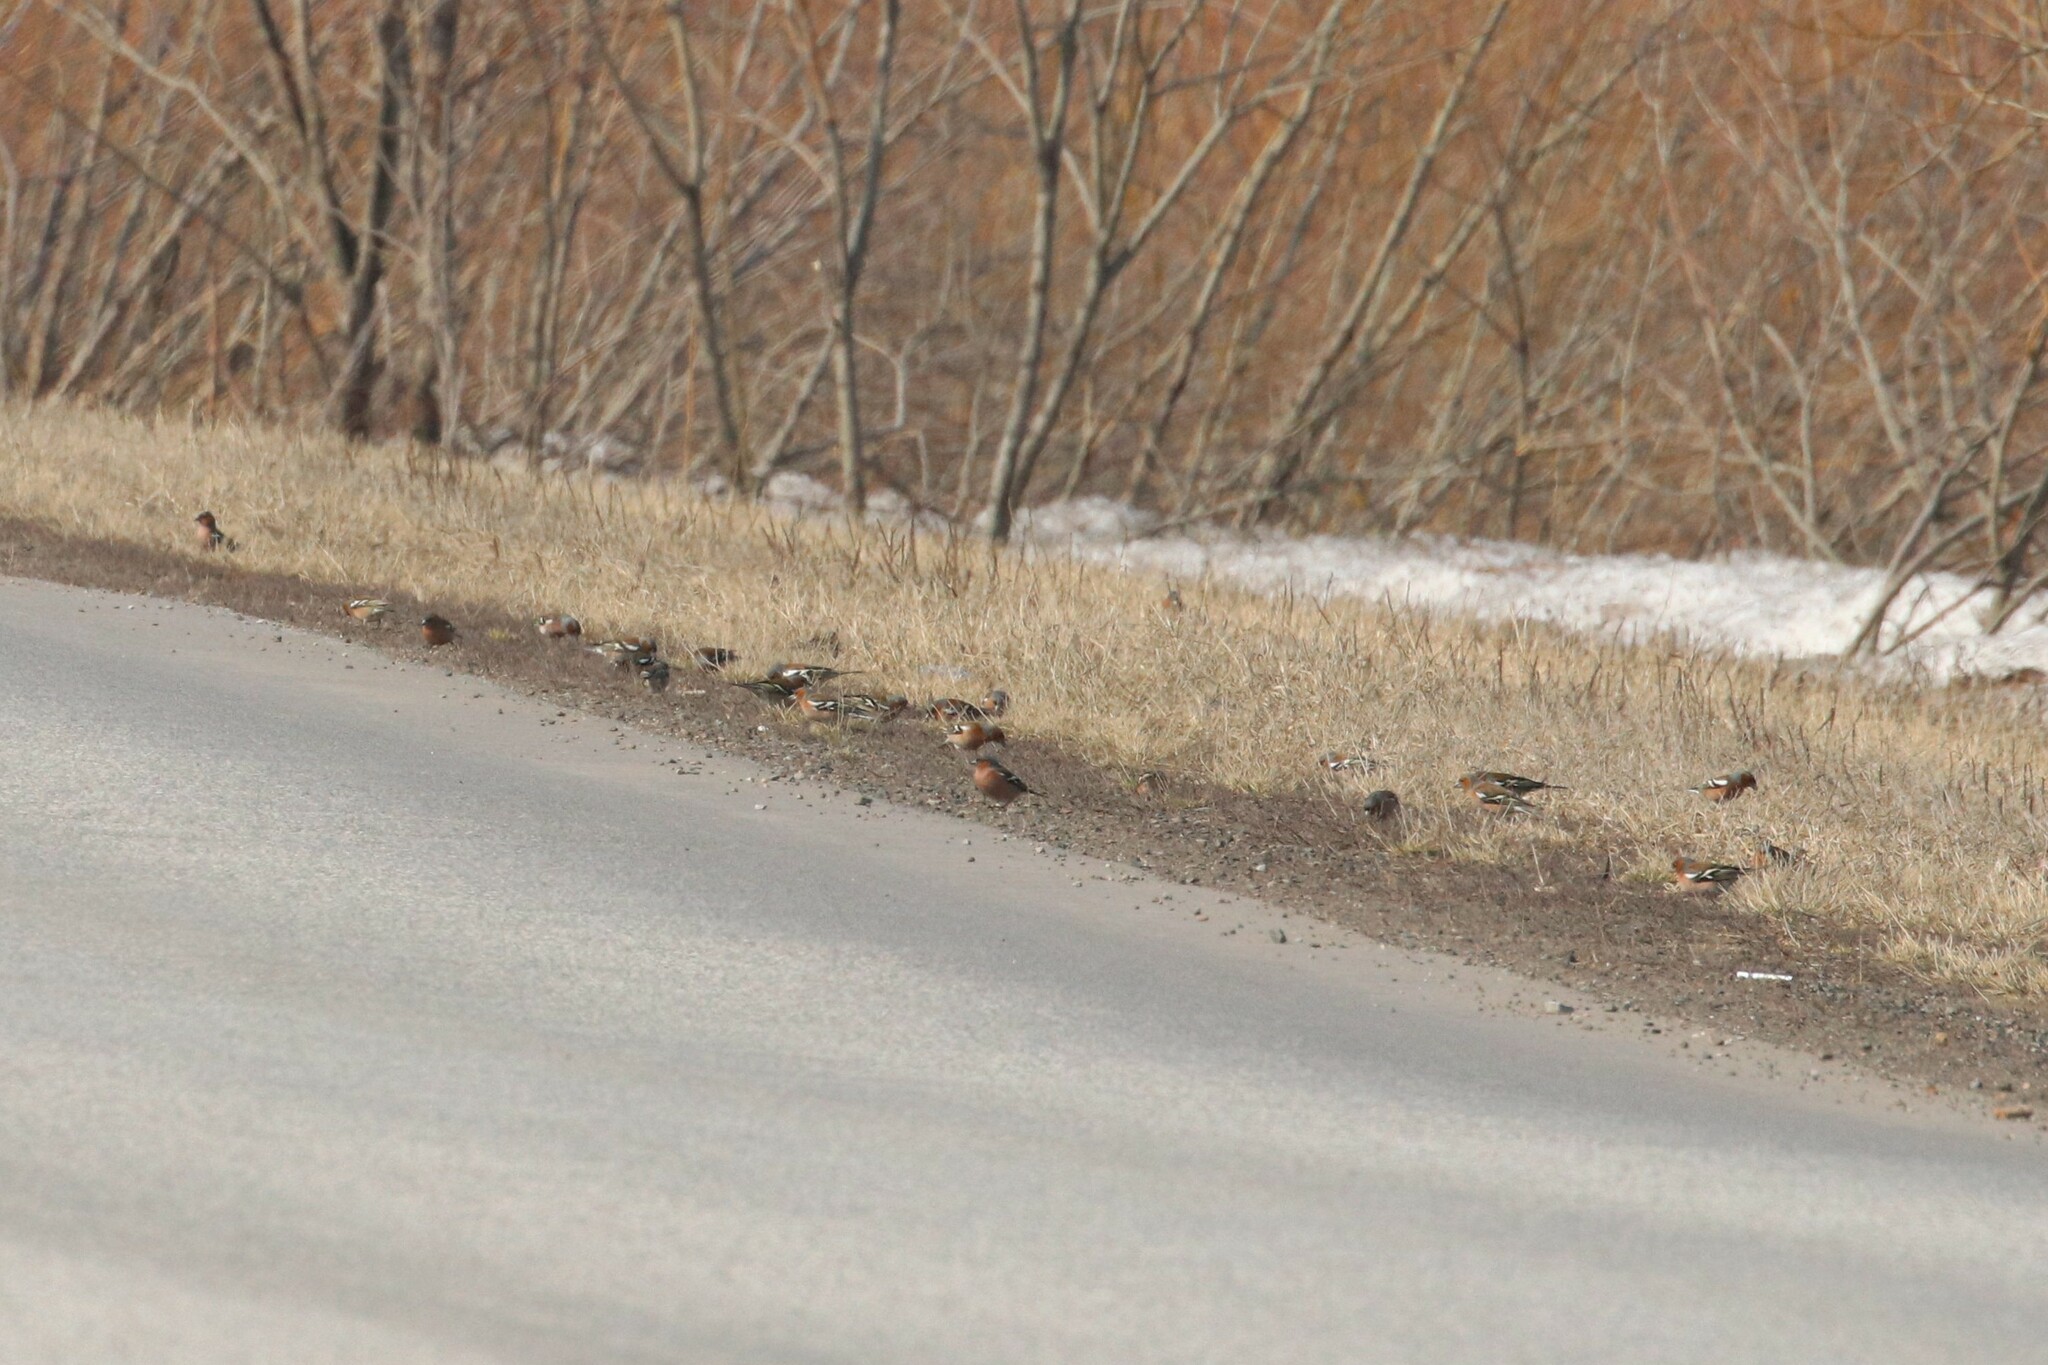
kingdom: Animalia
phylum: Chordata
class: Aves
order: Passeriformes
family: Fringillidae
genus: Fringilla
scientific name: Fringilla coelebs
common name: Common chaffinch
